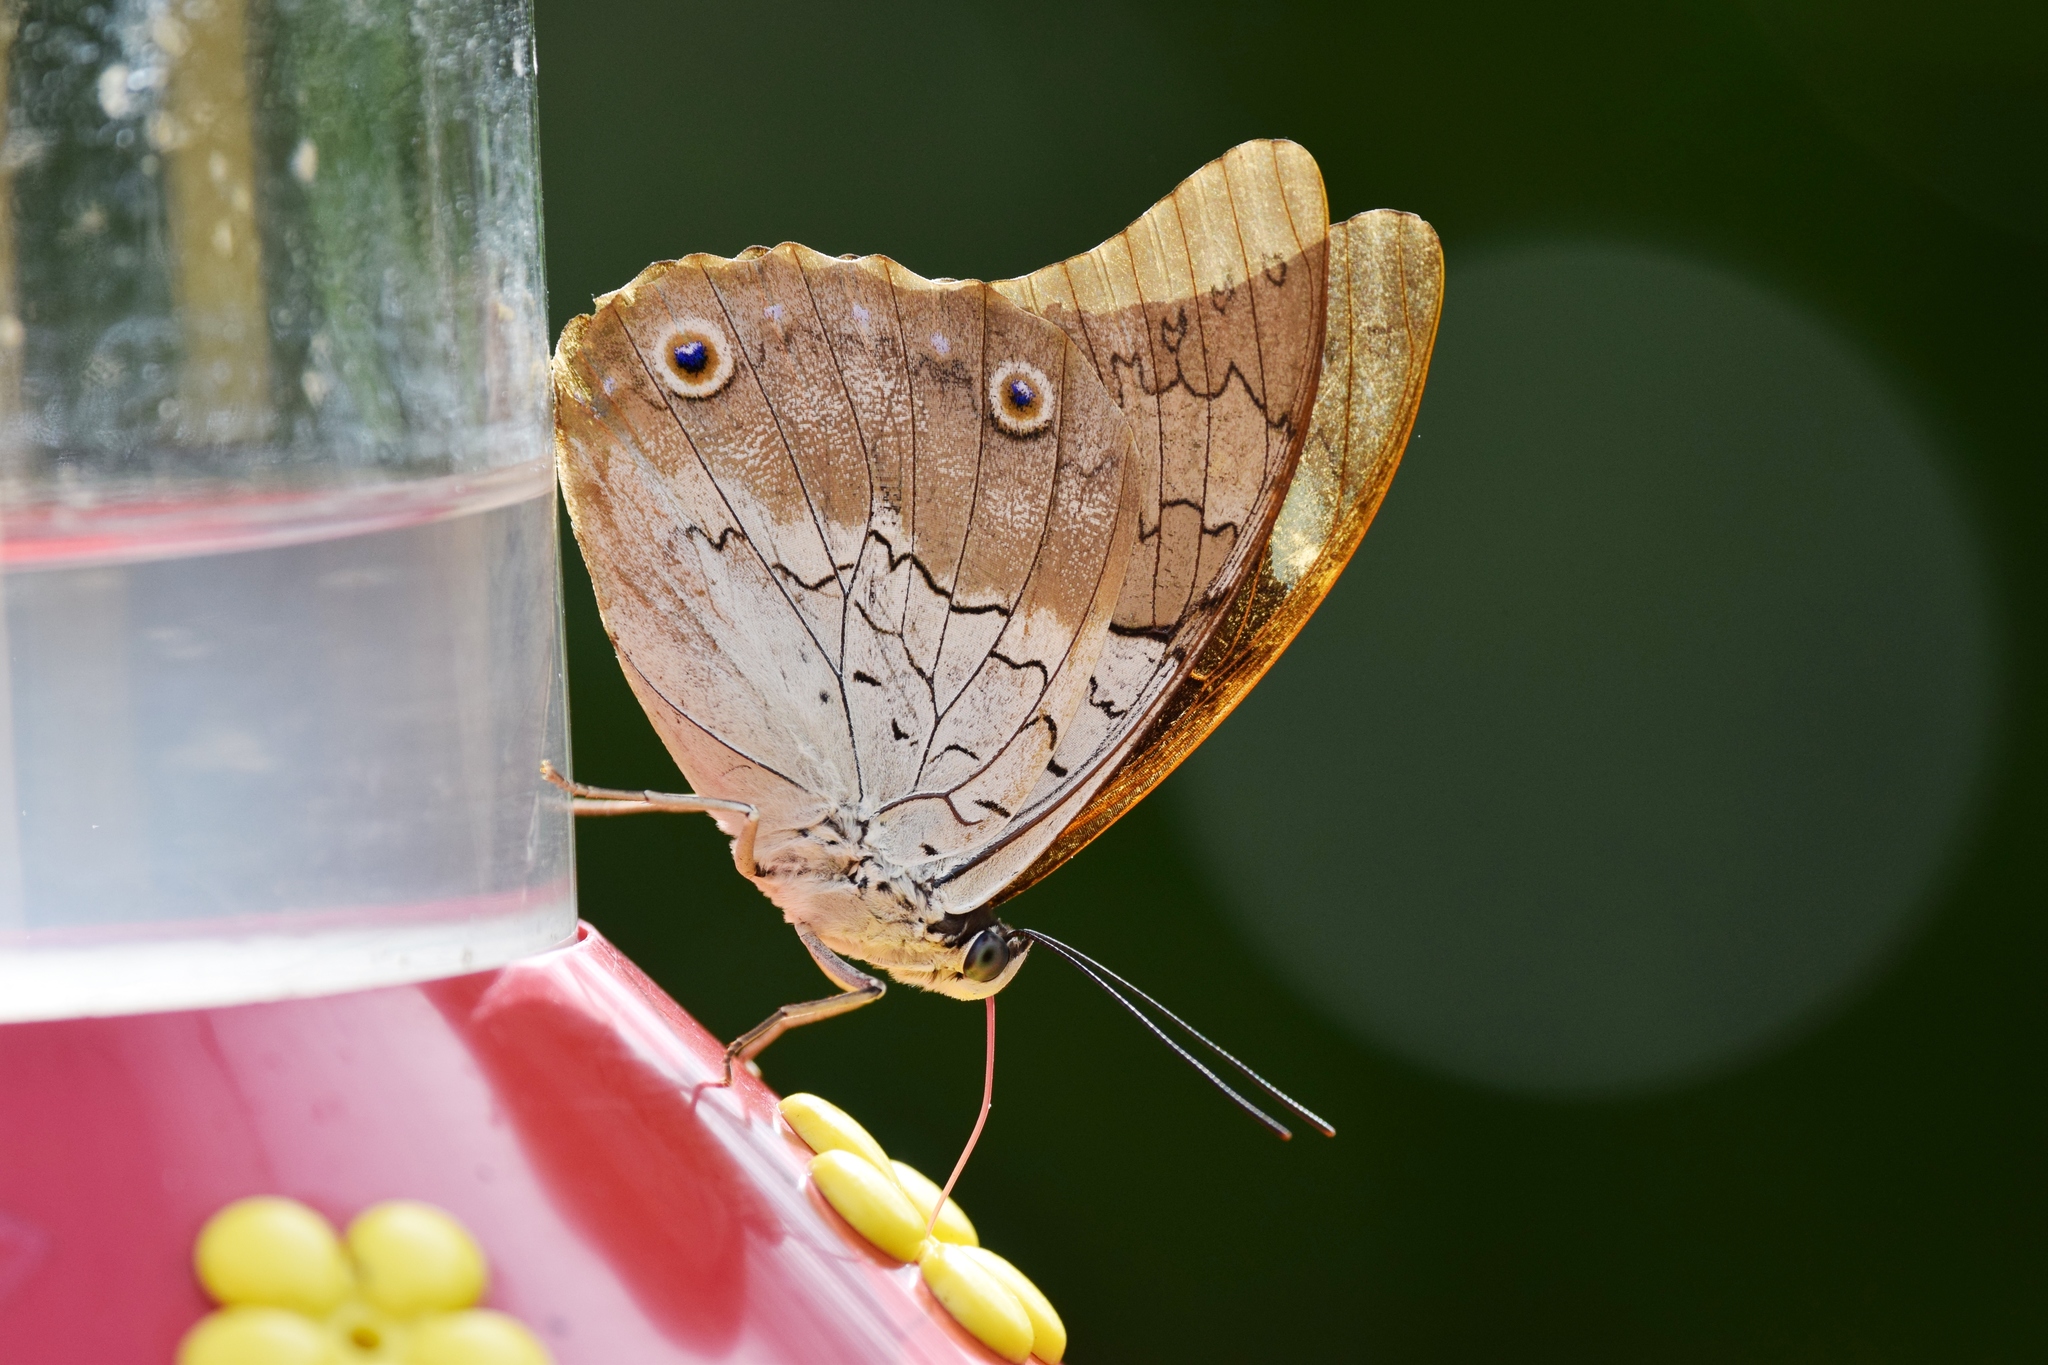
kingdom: Animalia
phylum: Arthropoda
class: Insecta
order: Lepidoptera
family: Nymphalidae
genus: Prepona
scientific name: Prepona laertes
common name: Butterfly
